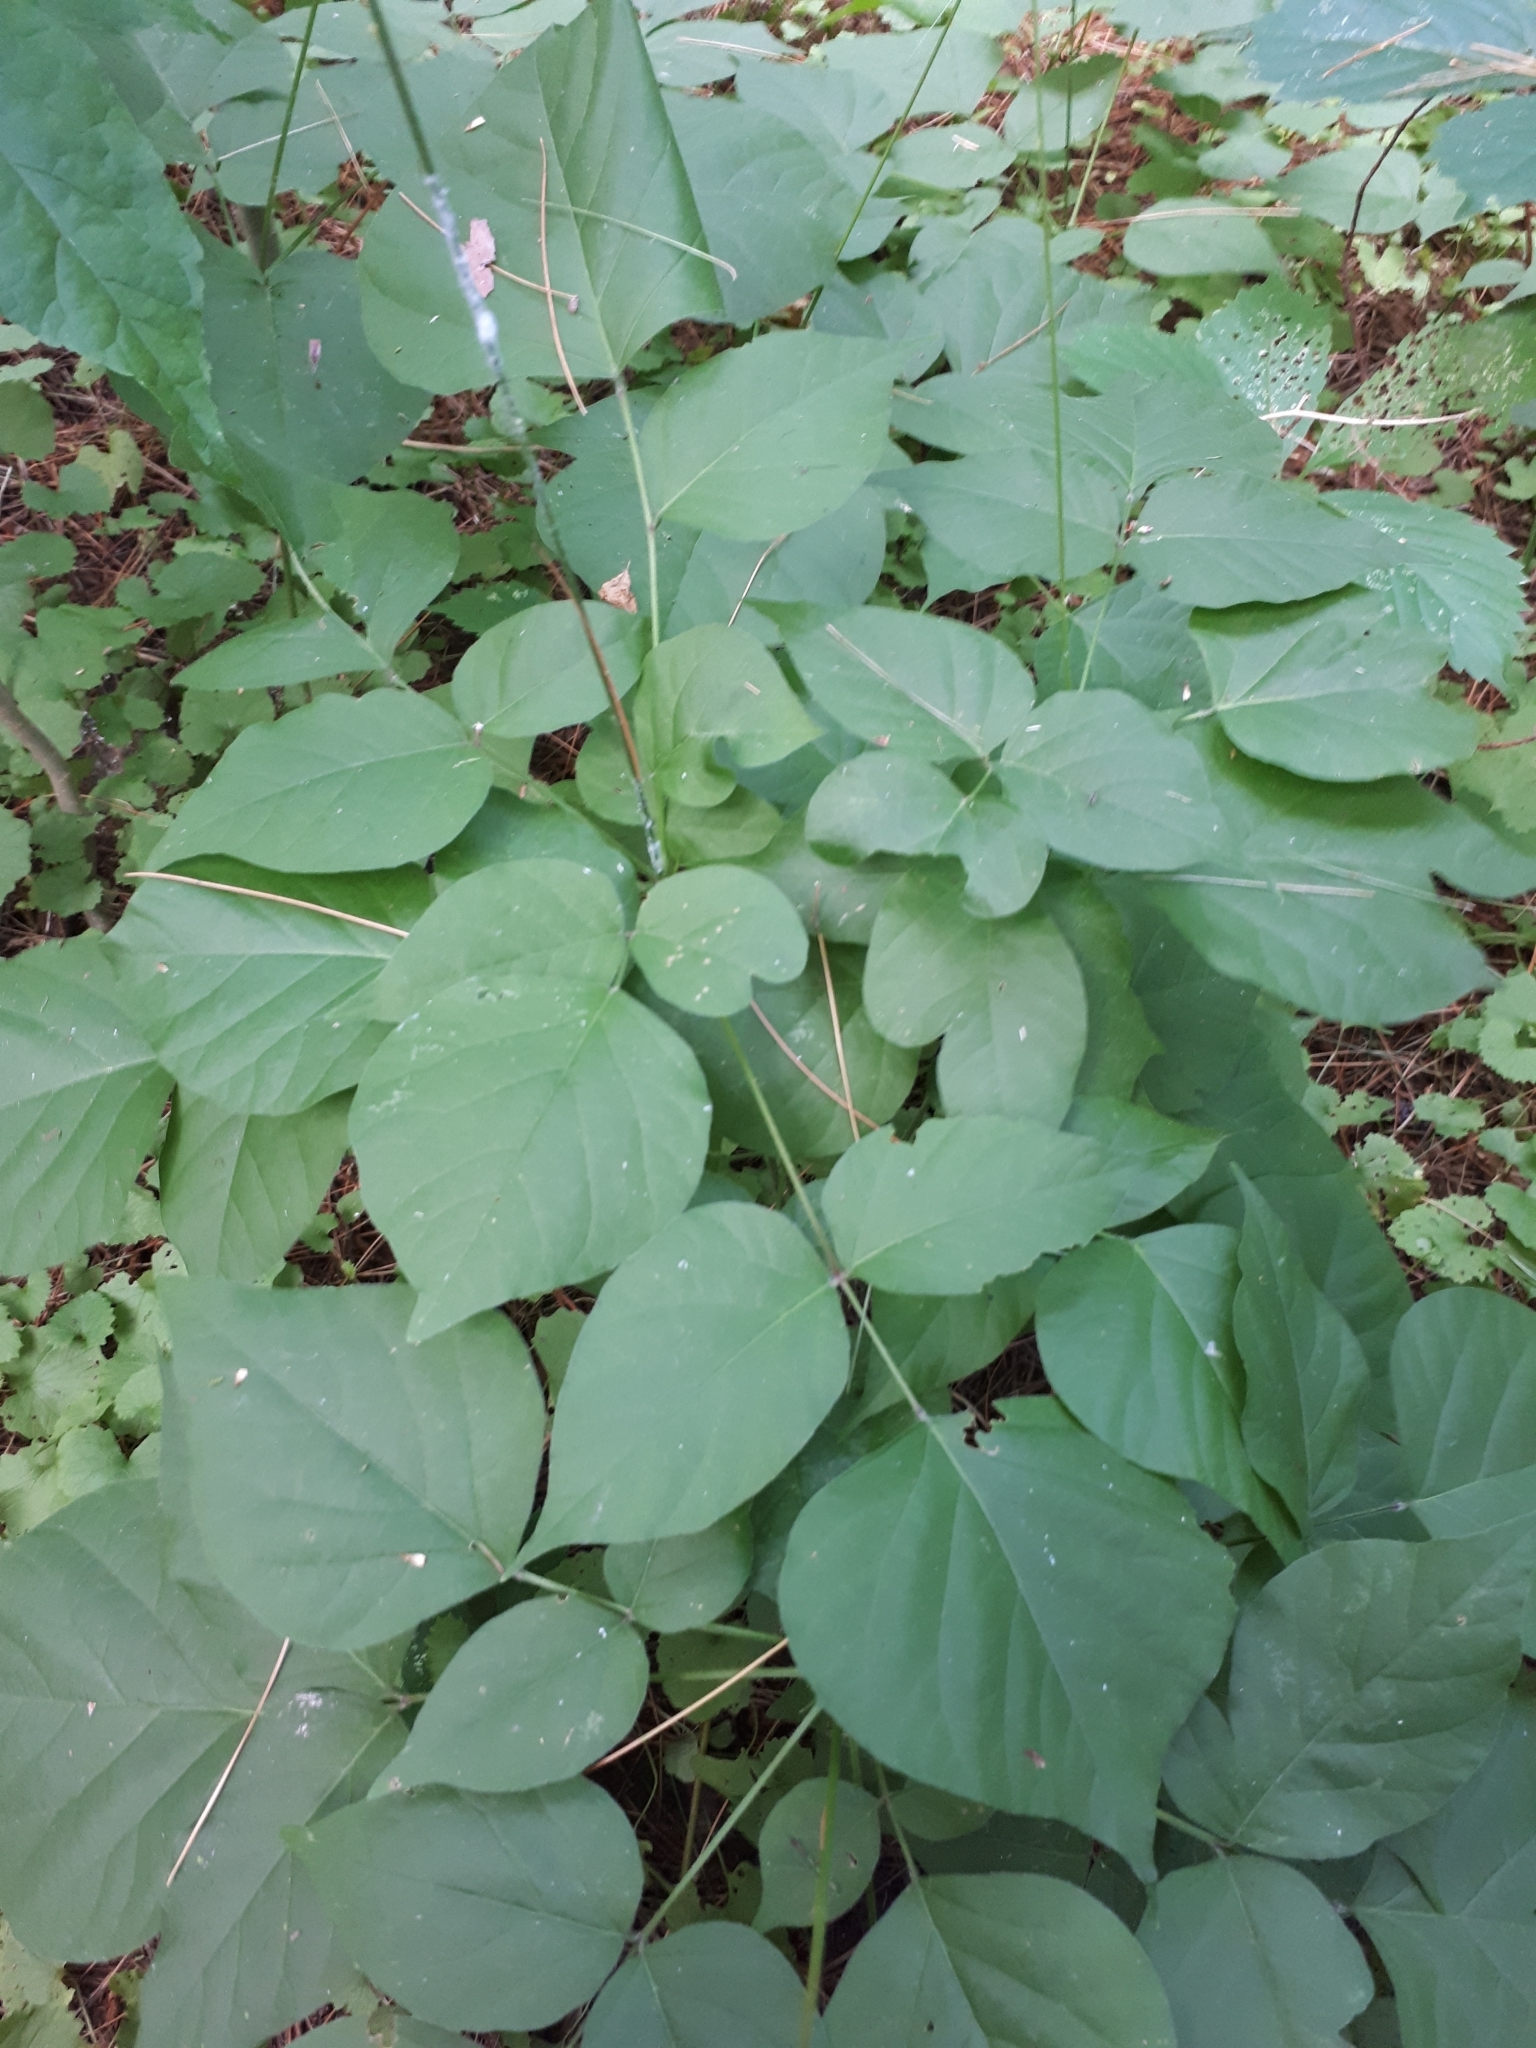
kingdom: Plantae
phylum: Tracheophyta
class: Magnoliopsida
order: Fabales
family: Fabaceae
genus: Hylodesmum
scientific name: Hylodesmum glutinosum
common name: Clustered-leaved tick-trefoil
